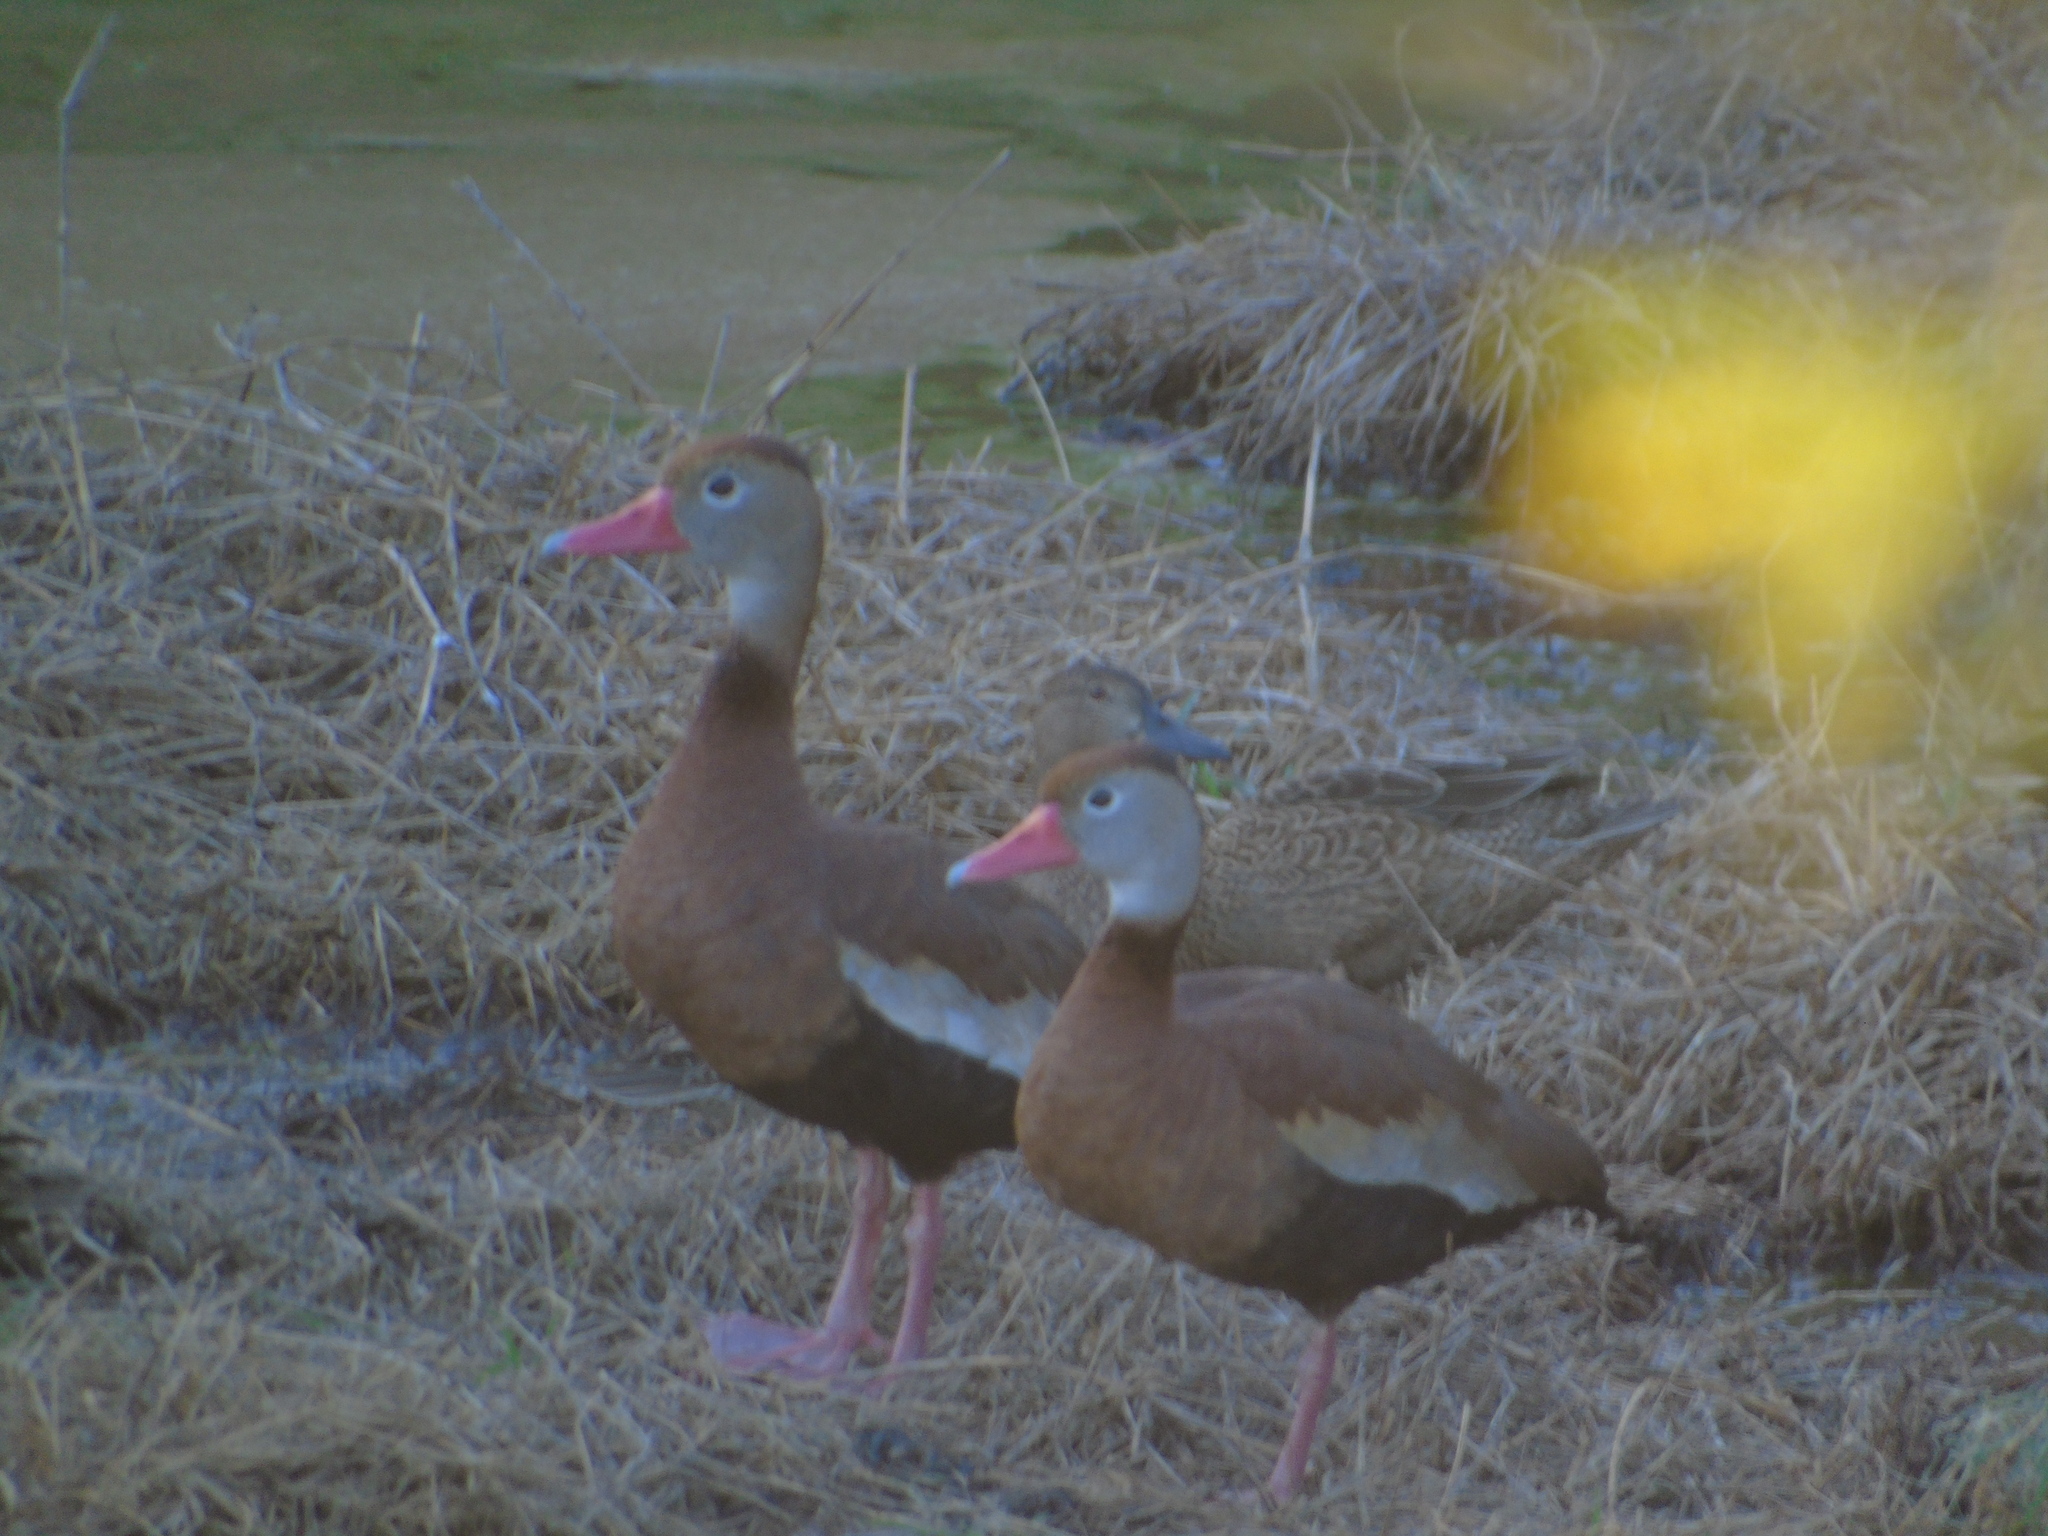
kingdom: Animalia
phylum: Chordata
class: Aves
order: Anseriformes
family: Anatidae
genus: Dendrocygna
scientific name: Dendrocygna autumnalis
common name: Black-bellied whistling duck
